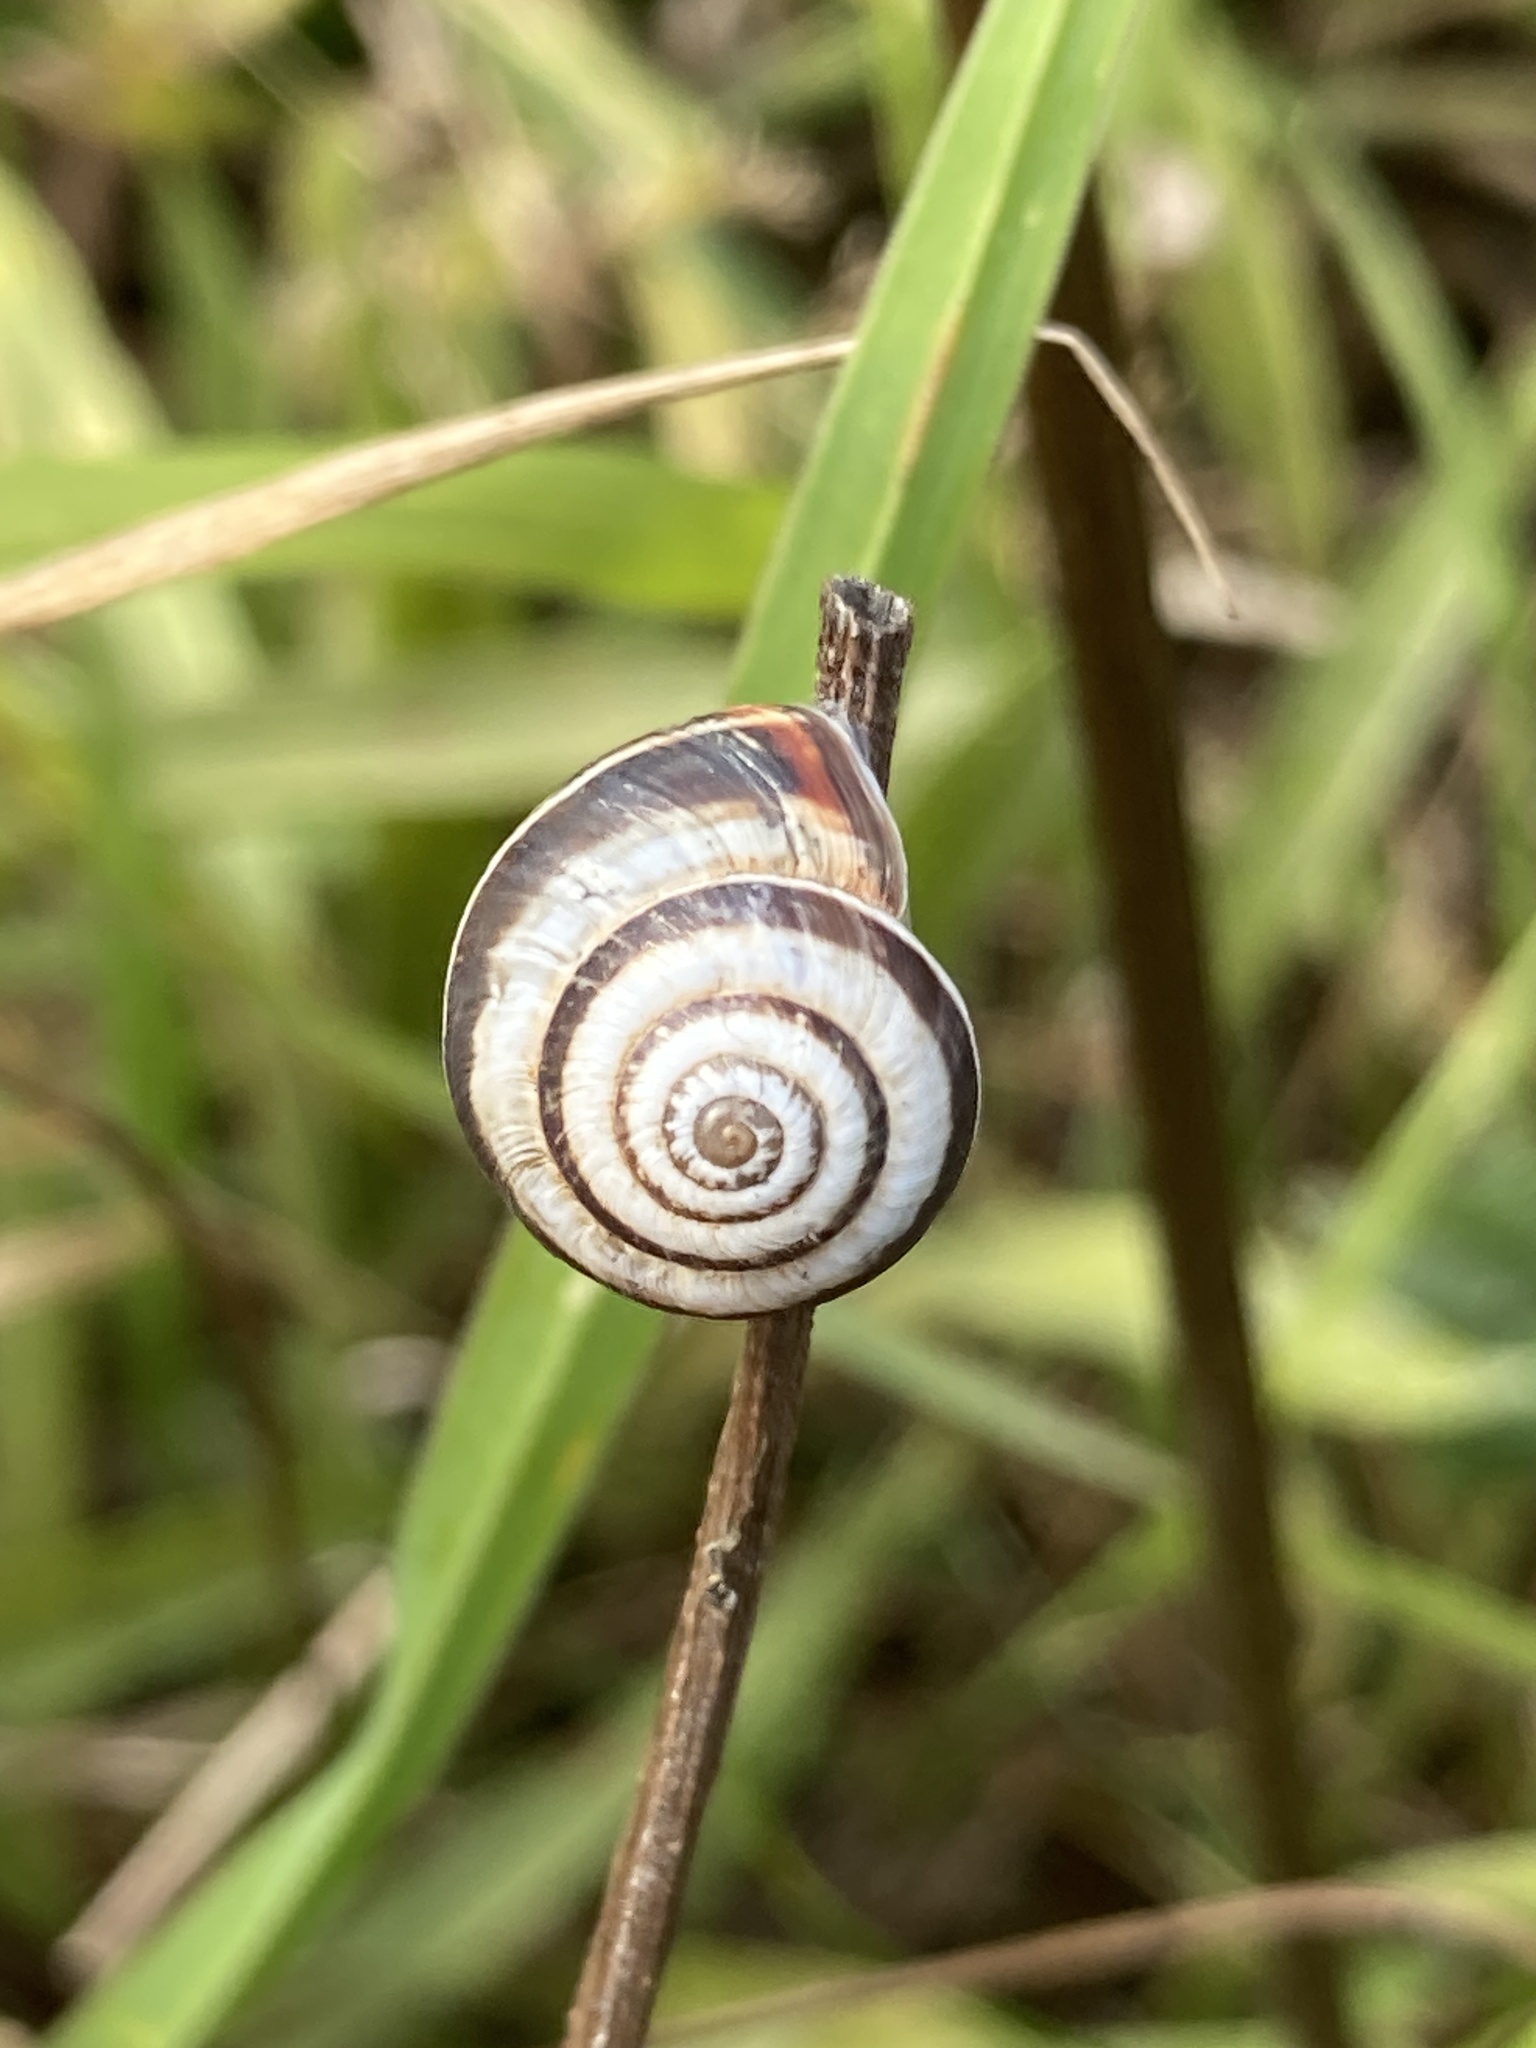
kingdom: Animalia
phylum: Mollusca
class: Gastropoda
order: Stylommatophora
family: Geomitridae
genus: Cernuella
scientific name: Cernuella virgata
